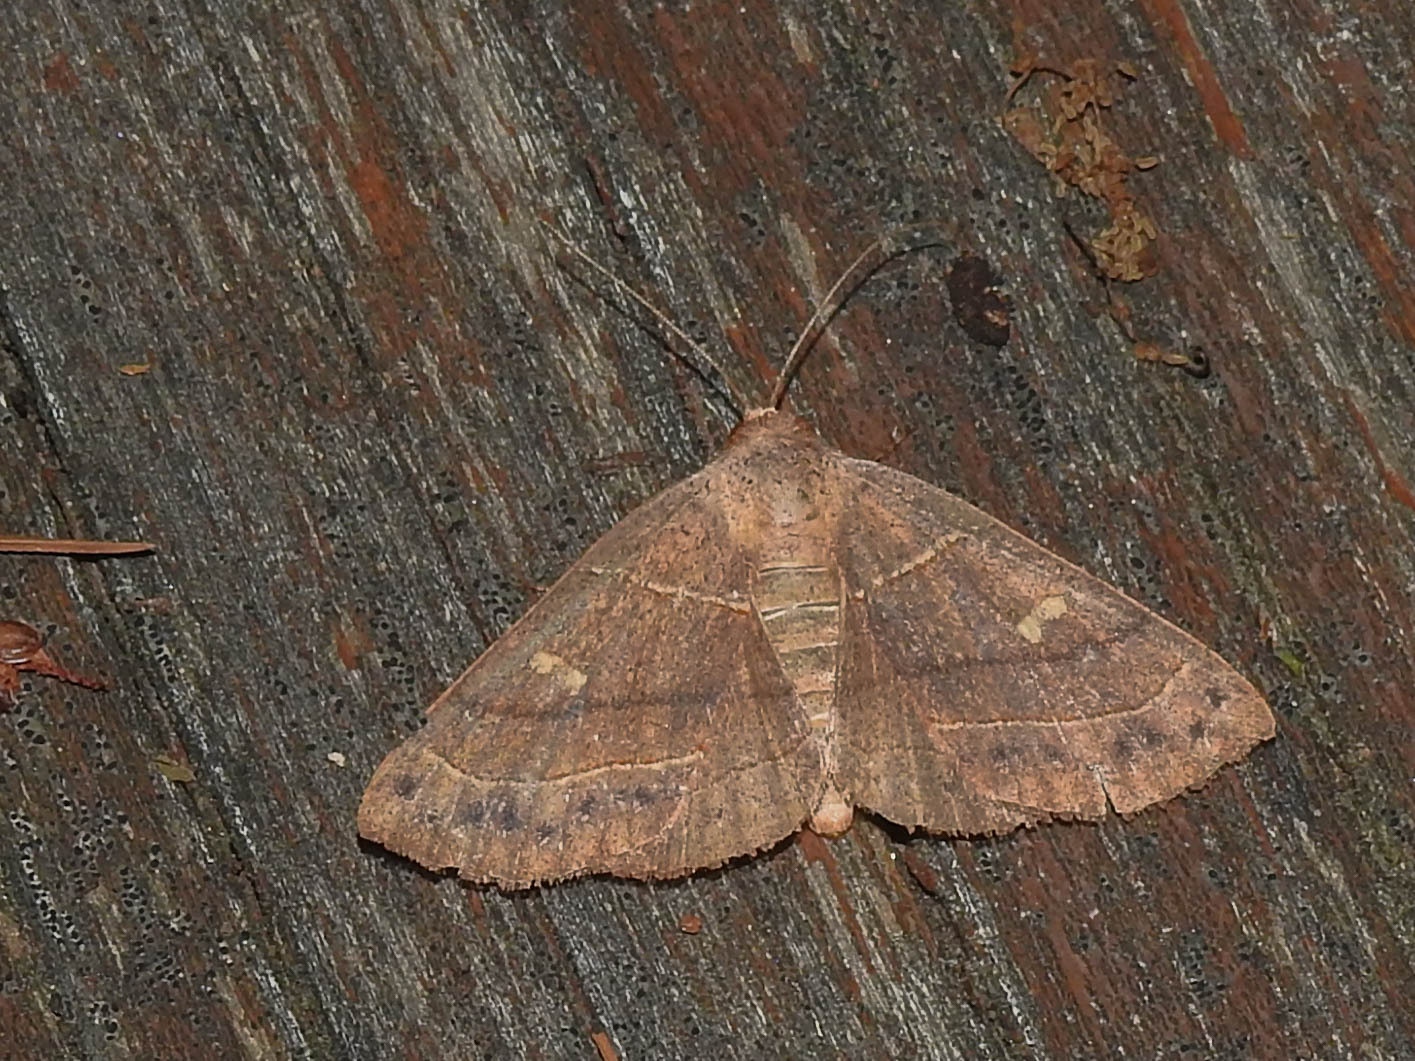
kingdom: Animalia
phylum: Arthropoda
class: Insecta
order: Lepidoptera
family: Erebidae
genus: Panopoda
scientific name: Panopoda rufimargo
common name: Red-lined panopoda moth
